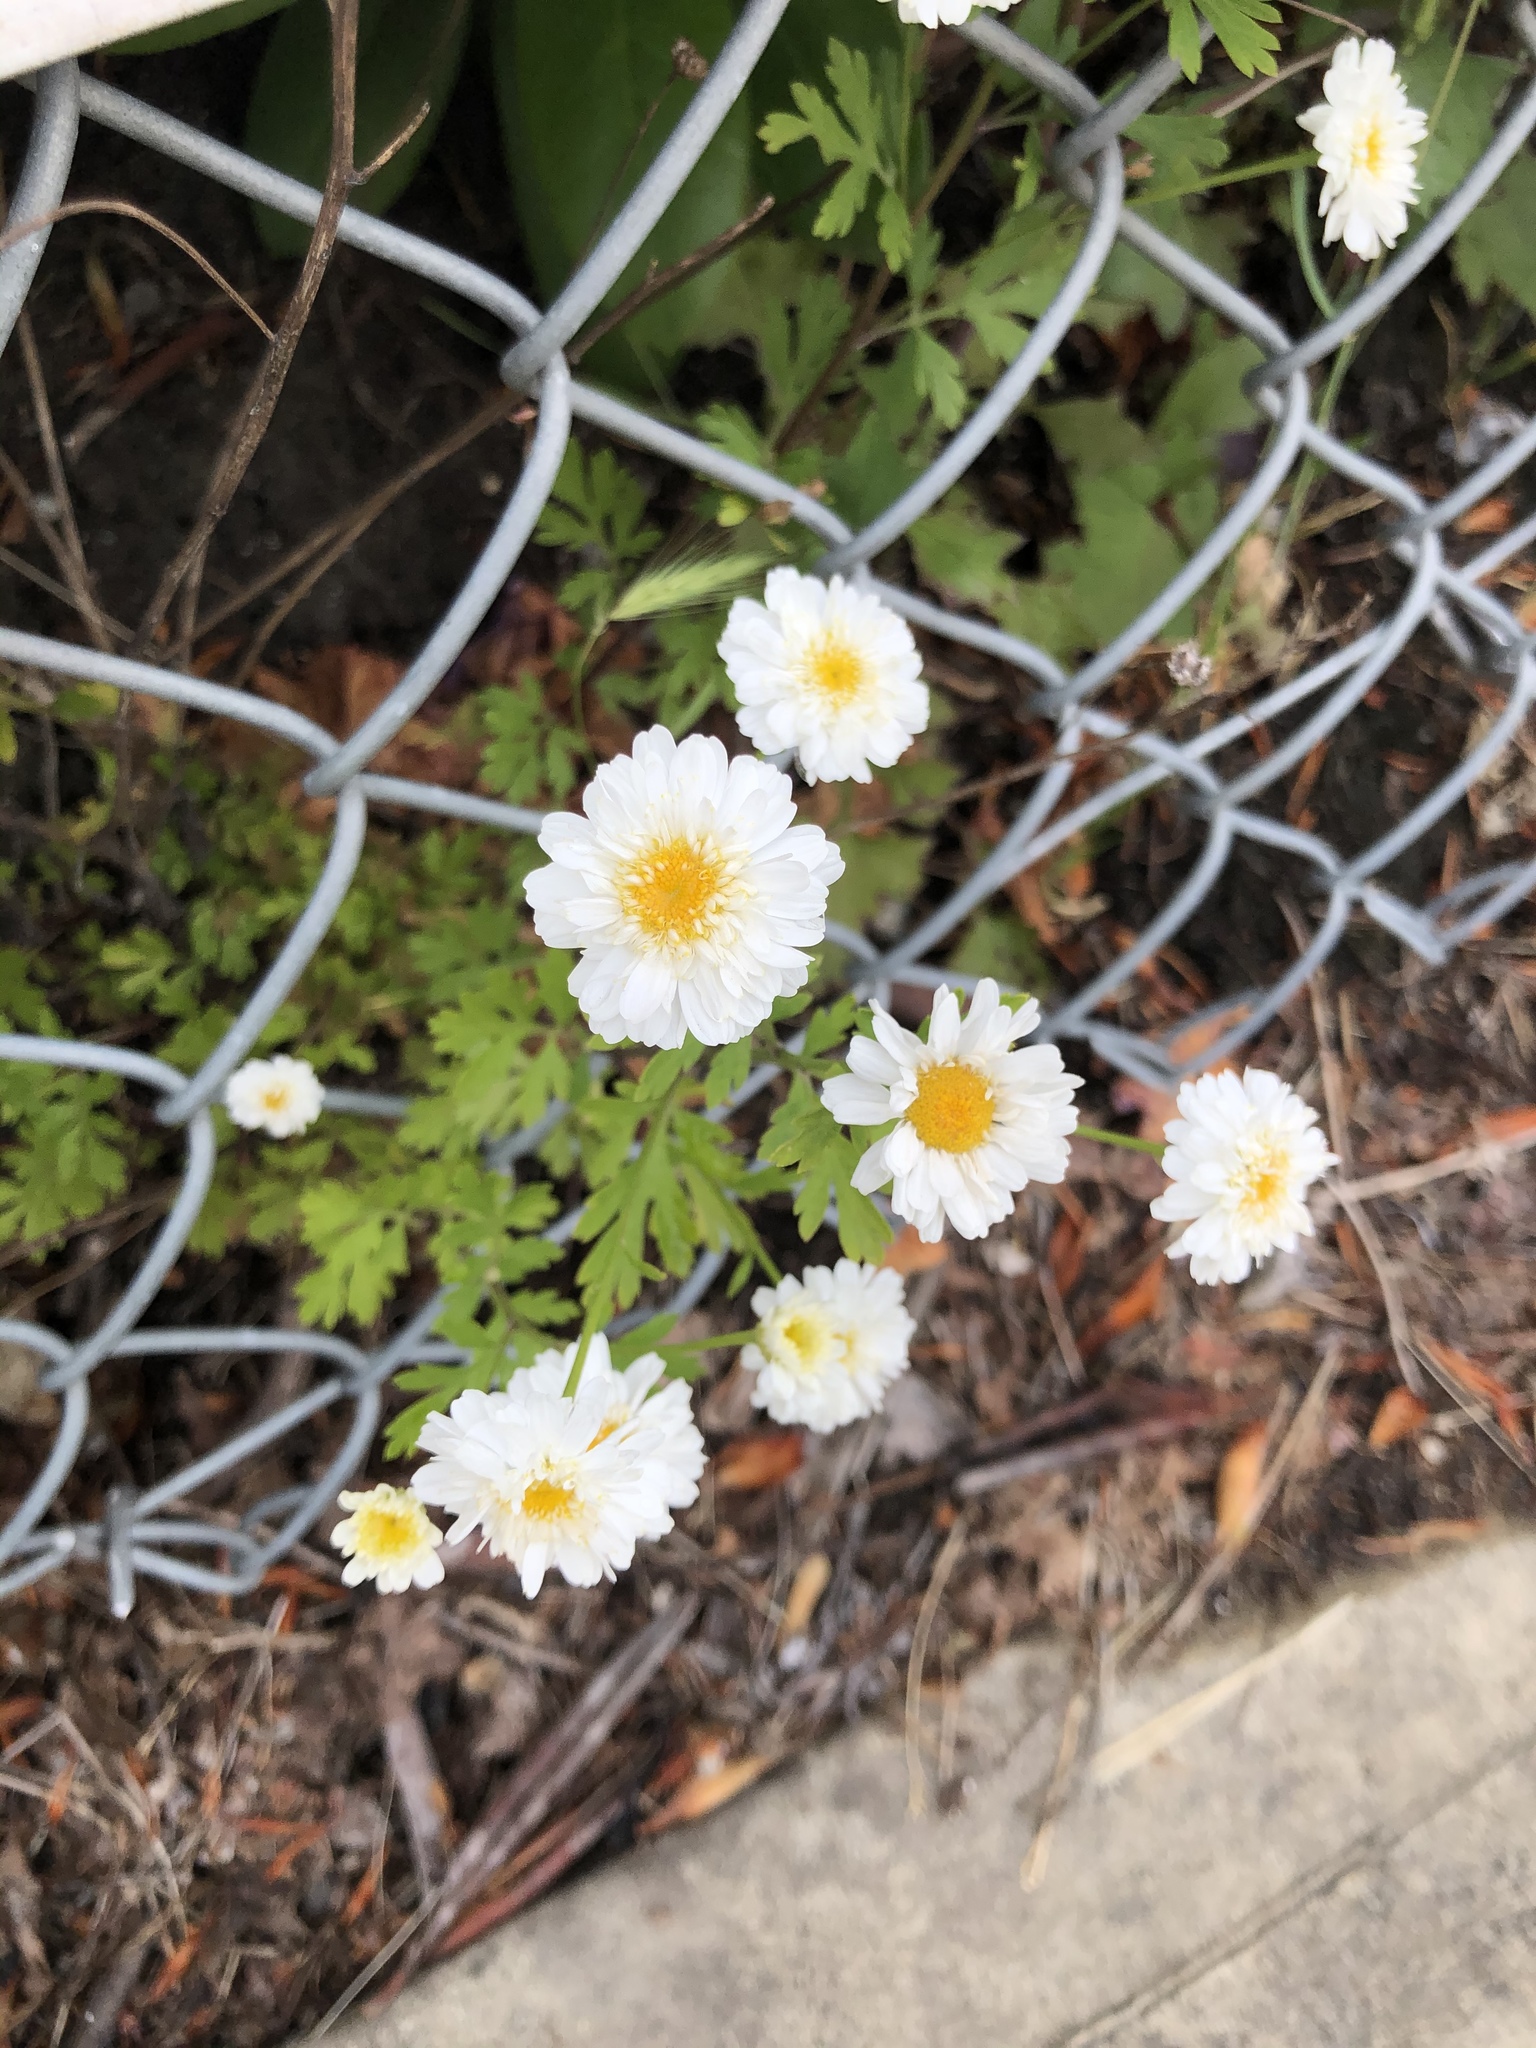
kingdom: Plantae
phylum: Tracheophyta
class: Magnoliopsida
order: Asterales
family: Asteraceae
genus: Tanacetum
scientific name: Tanacetum parthenium
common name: Feverfew
